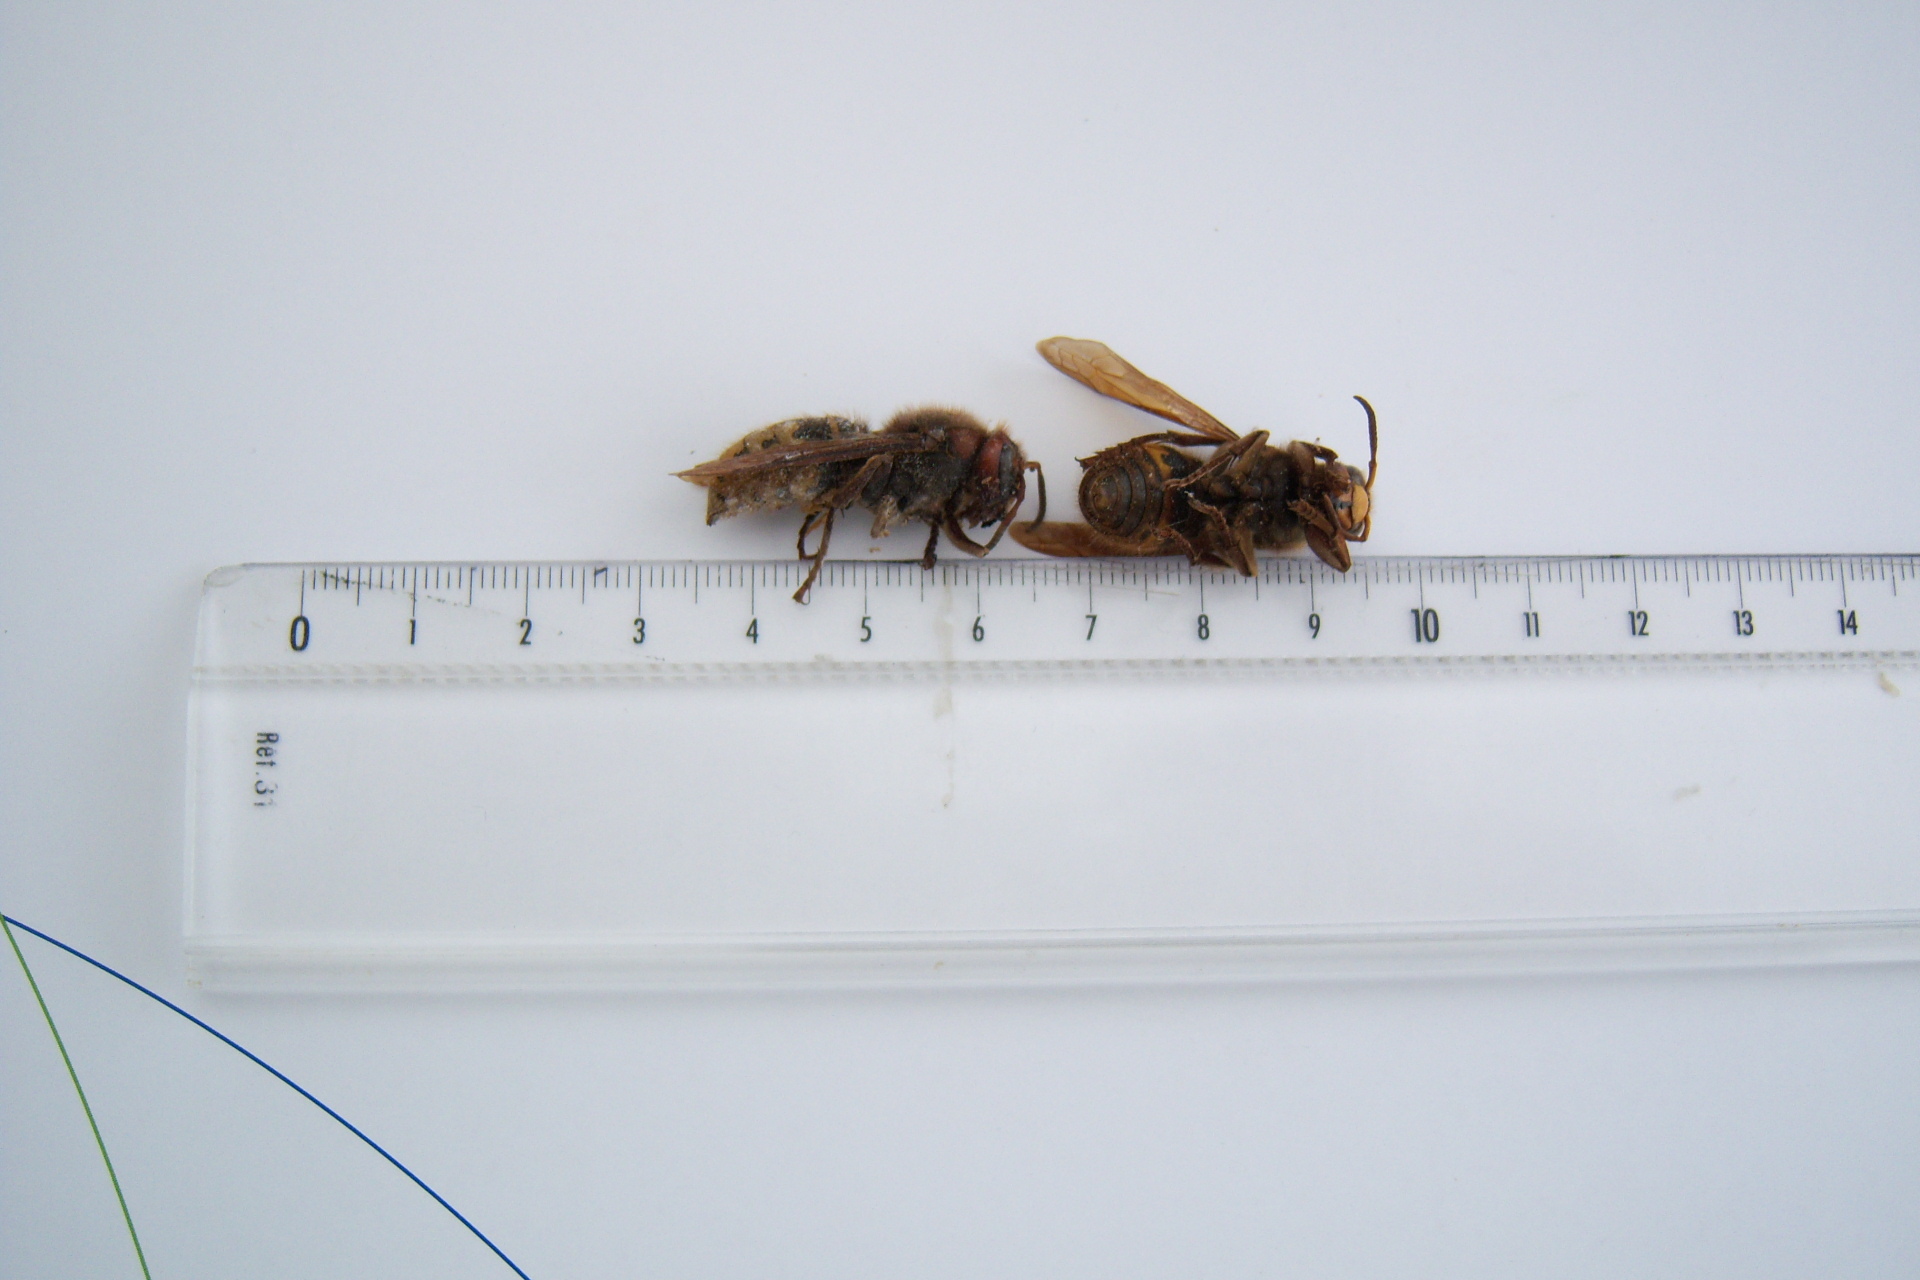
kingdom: Animalia
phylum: Arthropoda
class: Insecta
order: Hymenoptera
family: Vespidae
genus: Vespa
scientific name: Vespa crabro
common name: Hornet
